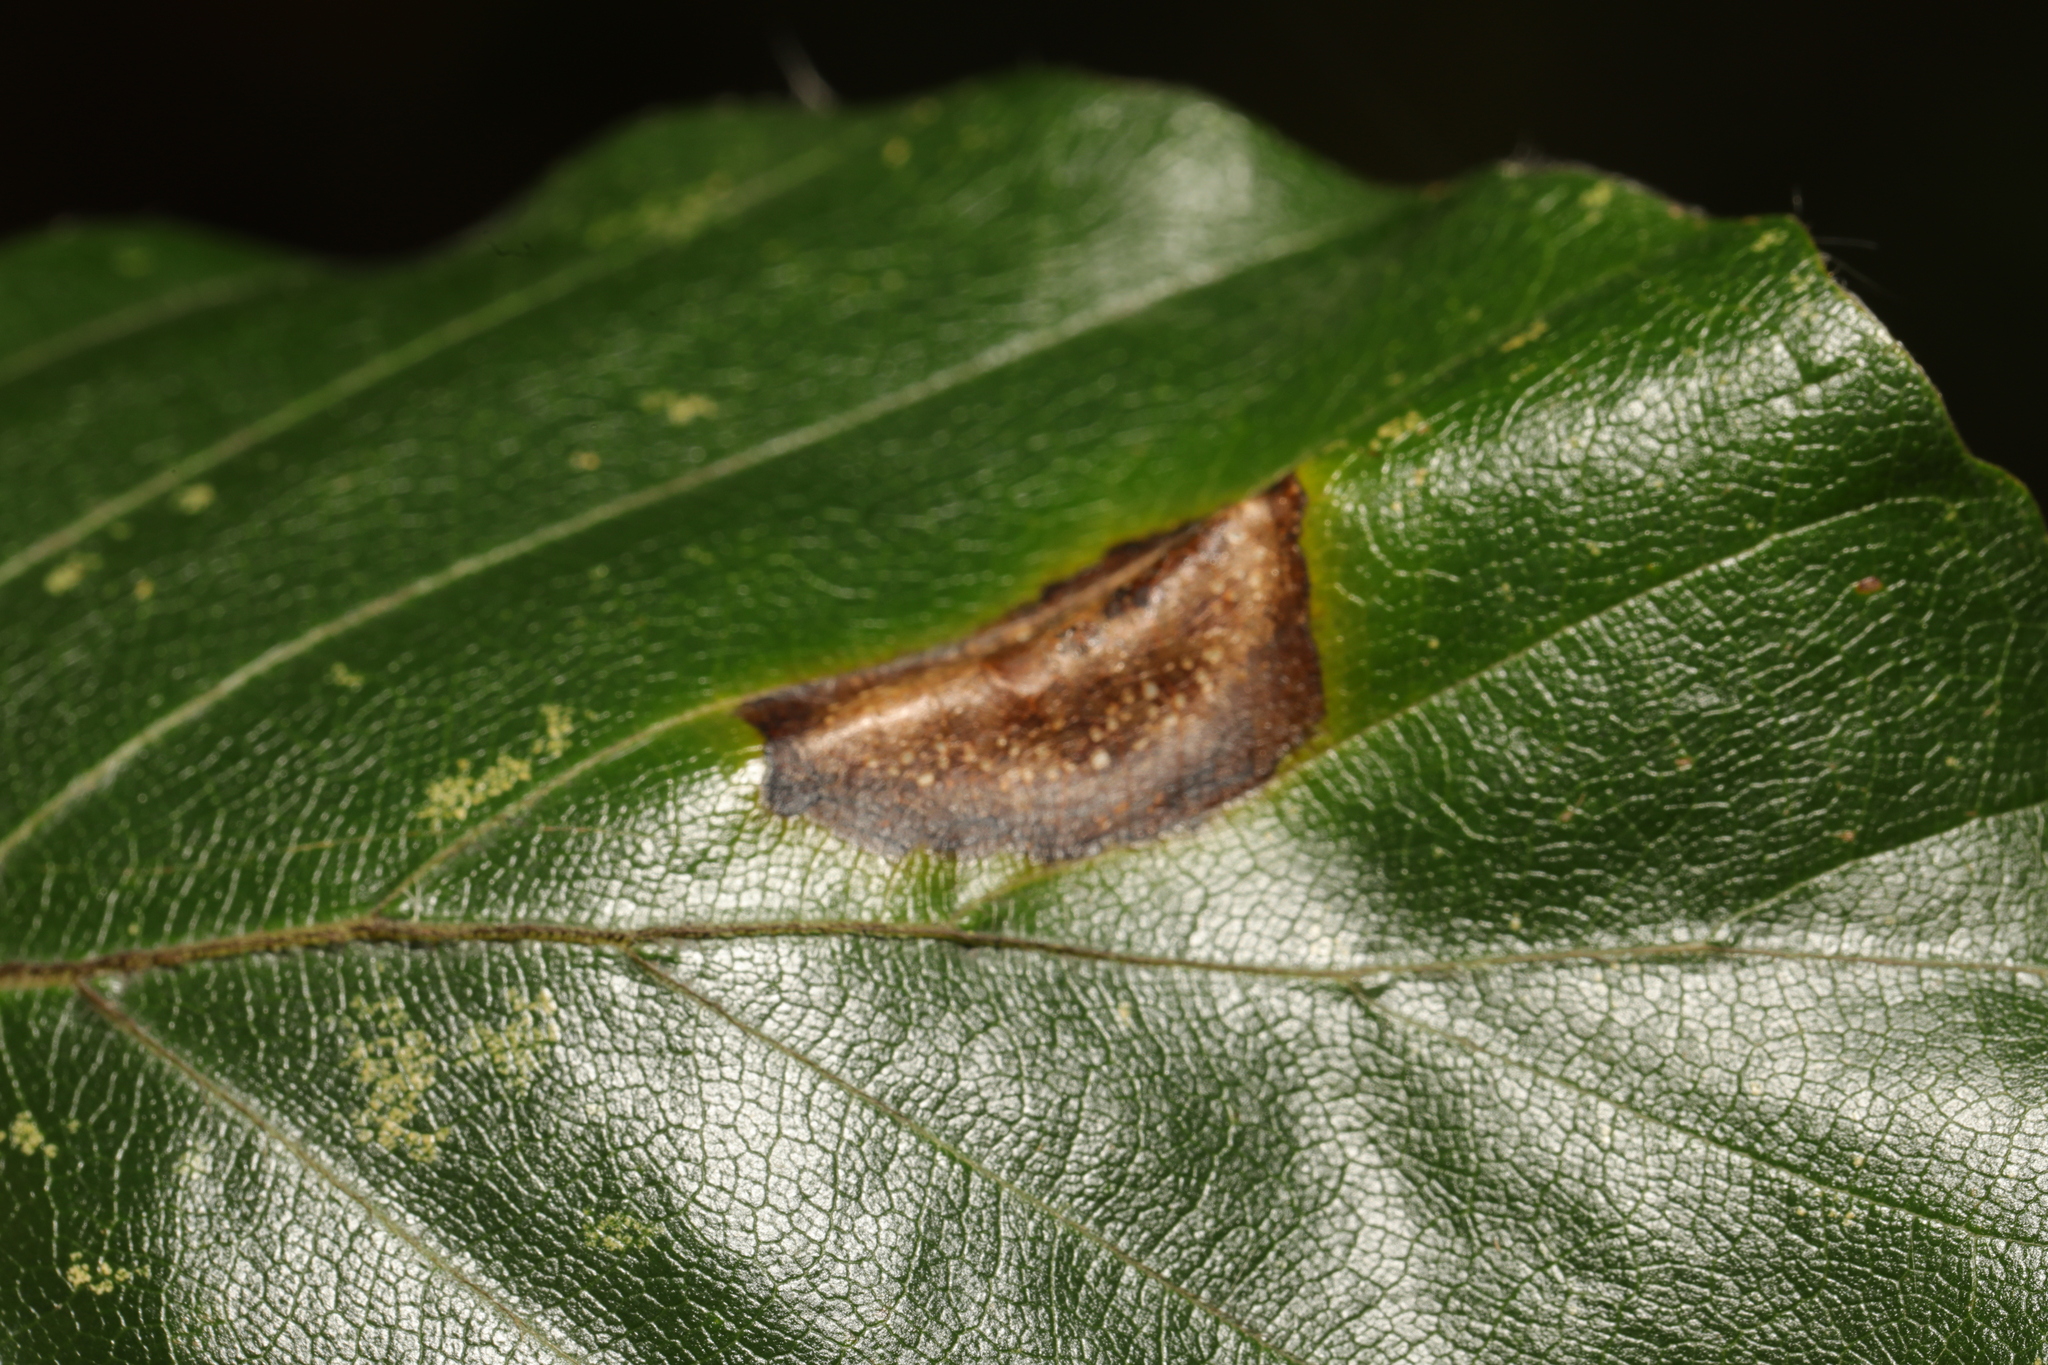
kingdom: Animalia
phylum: Arthropoda
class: Insecta
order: Lepidoptera
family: Gracillariidae
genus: Phyllonorycter
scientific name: Phyllonorycter platani
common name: London midget
